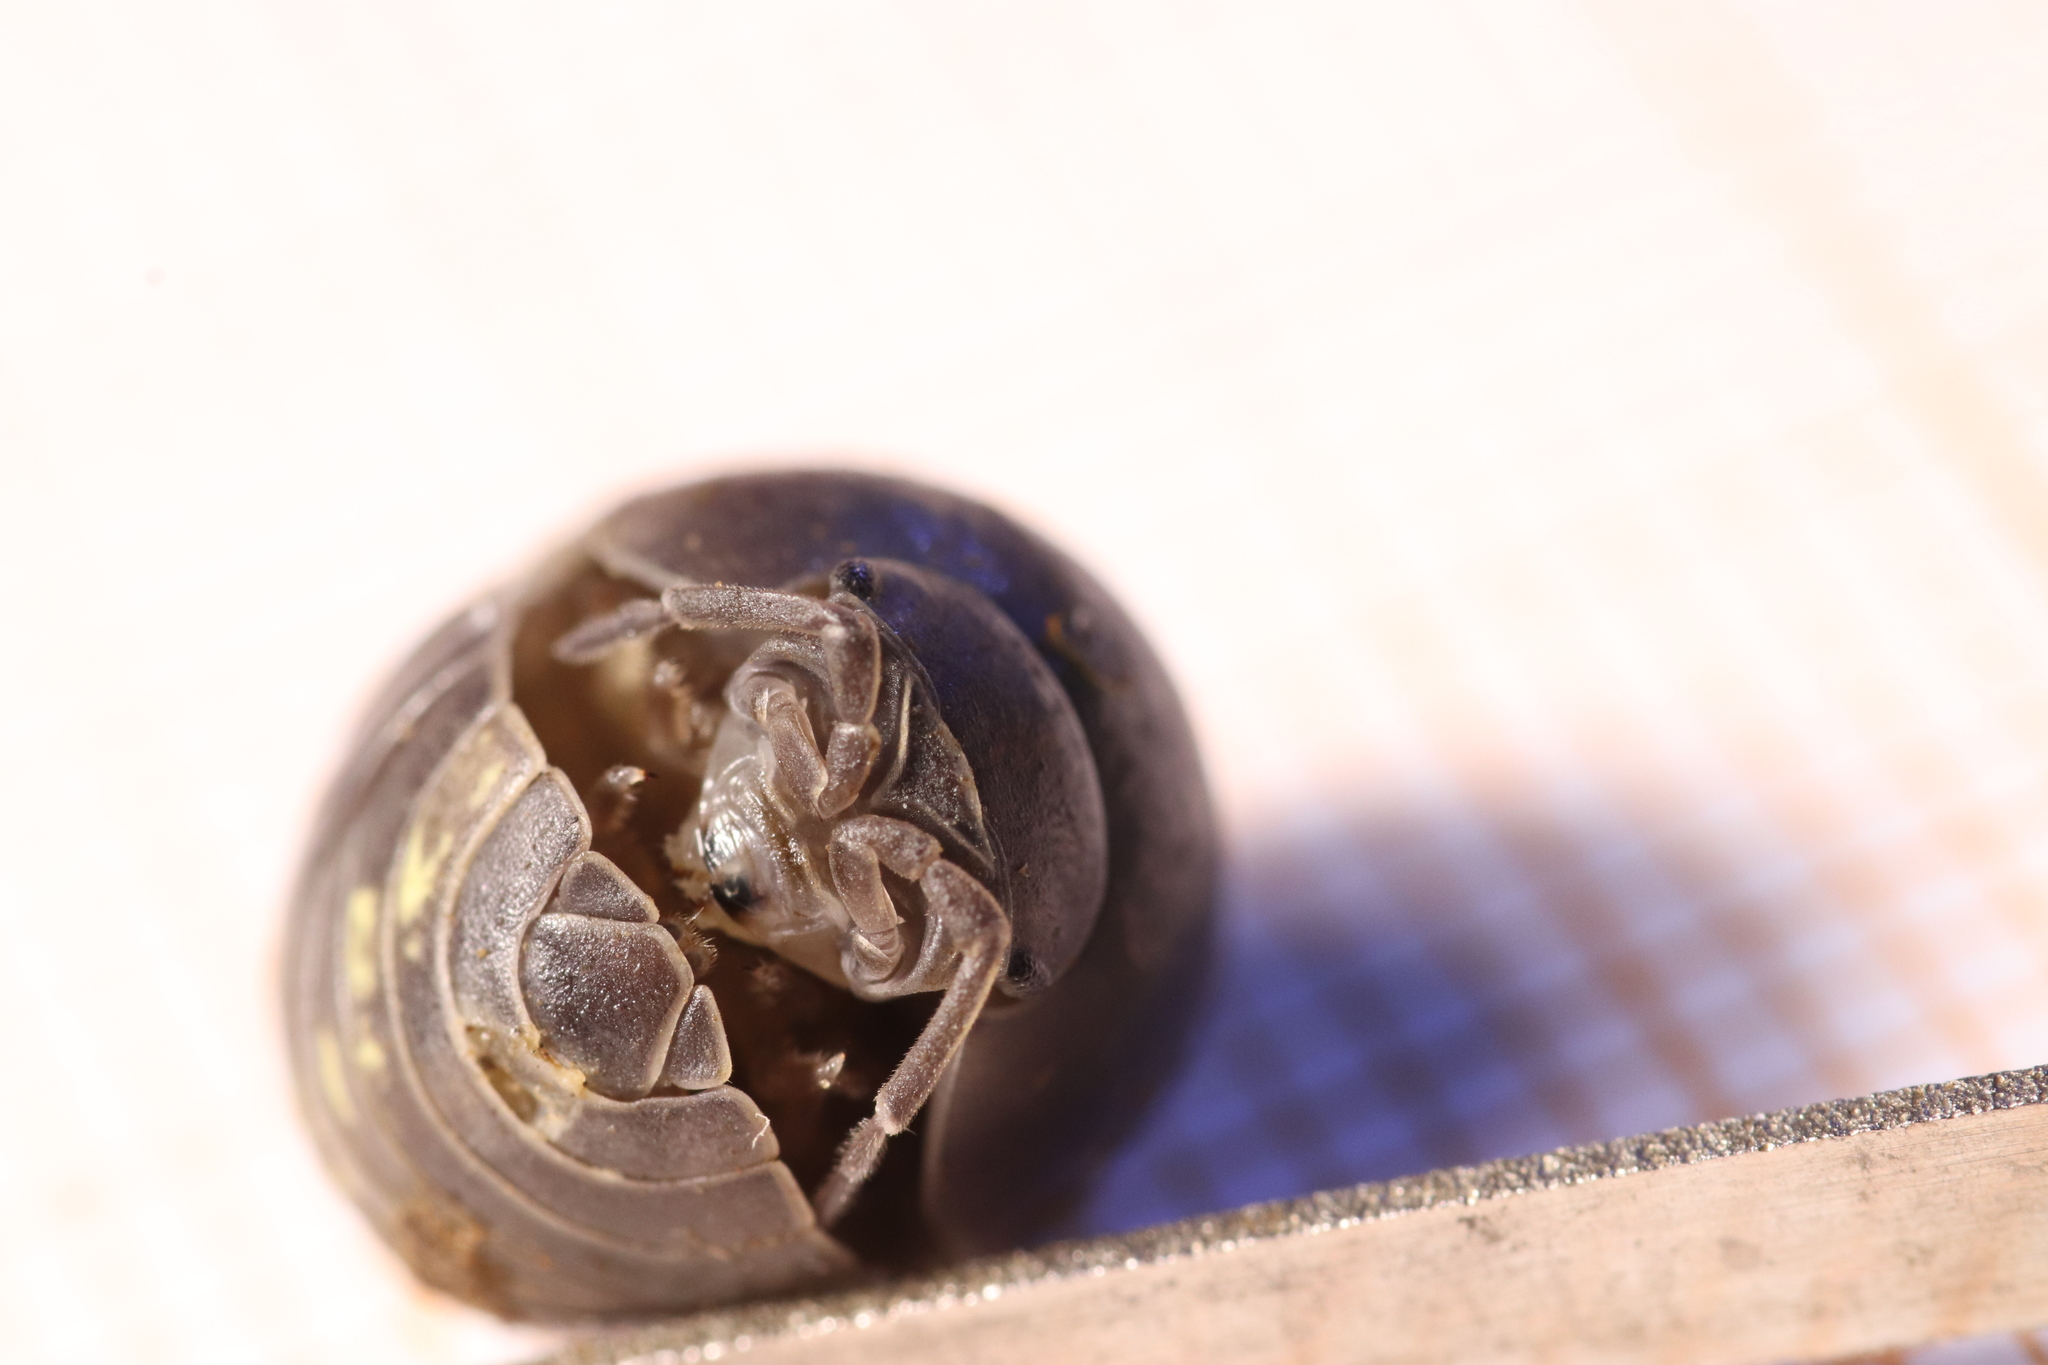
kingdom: Animalia
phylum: Arthropoda
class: Malacostraca
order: Isopoda
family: Armadillidiidae
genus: Armadillidium
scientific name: Armadillidium vulgare
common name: Common pill woodlouse
